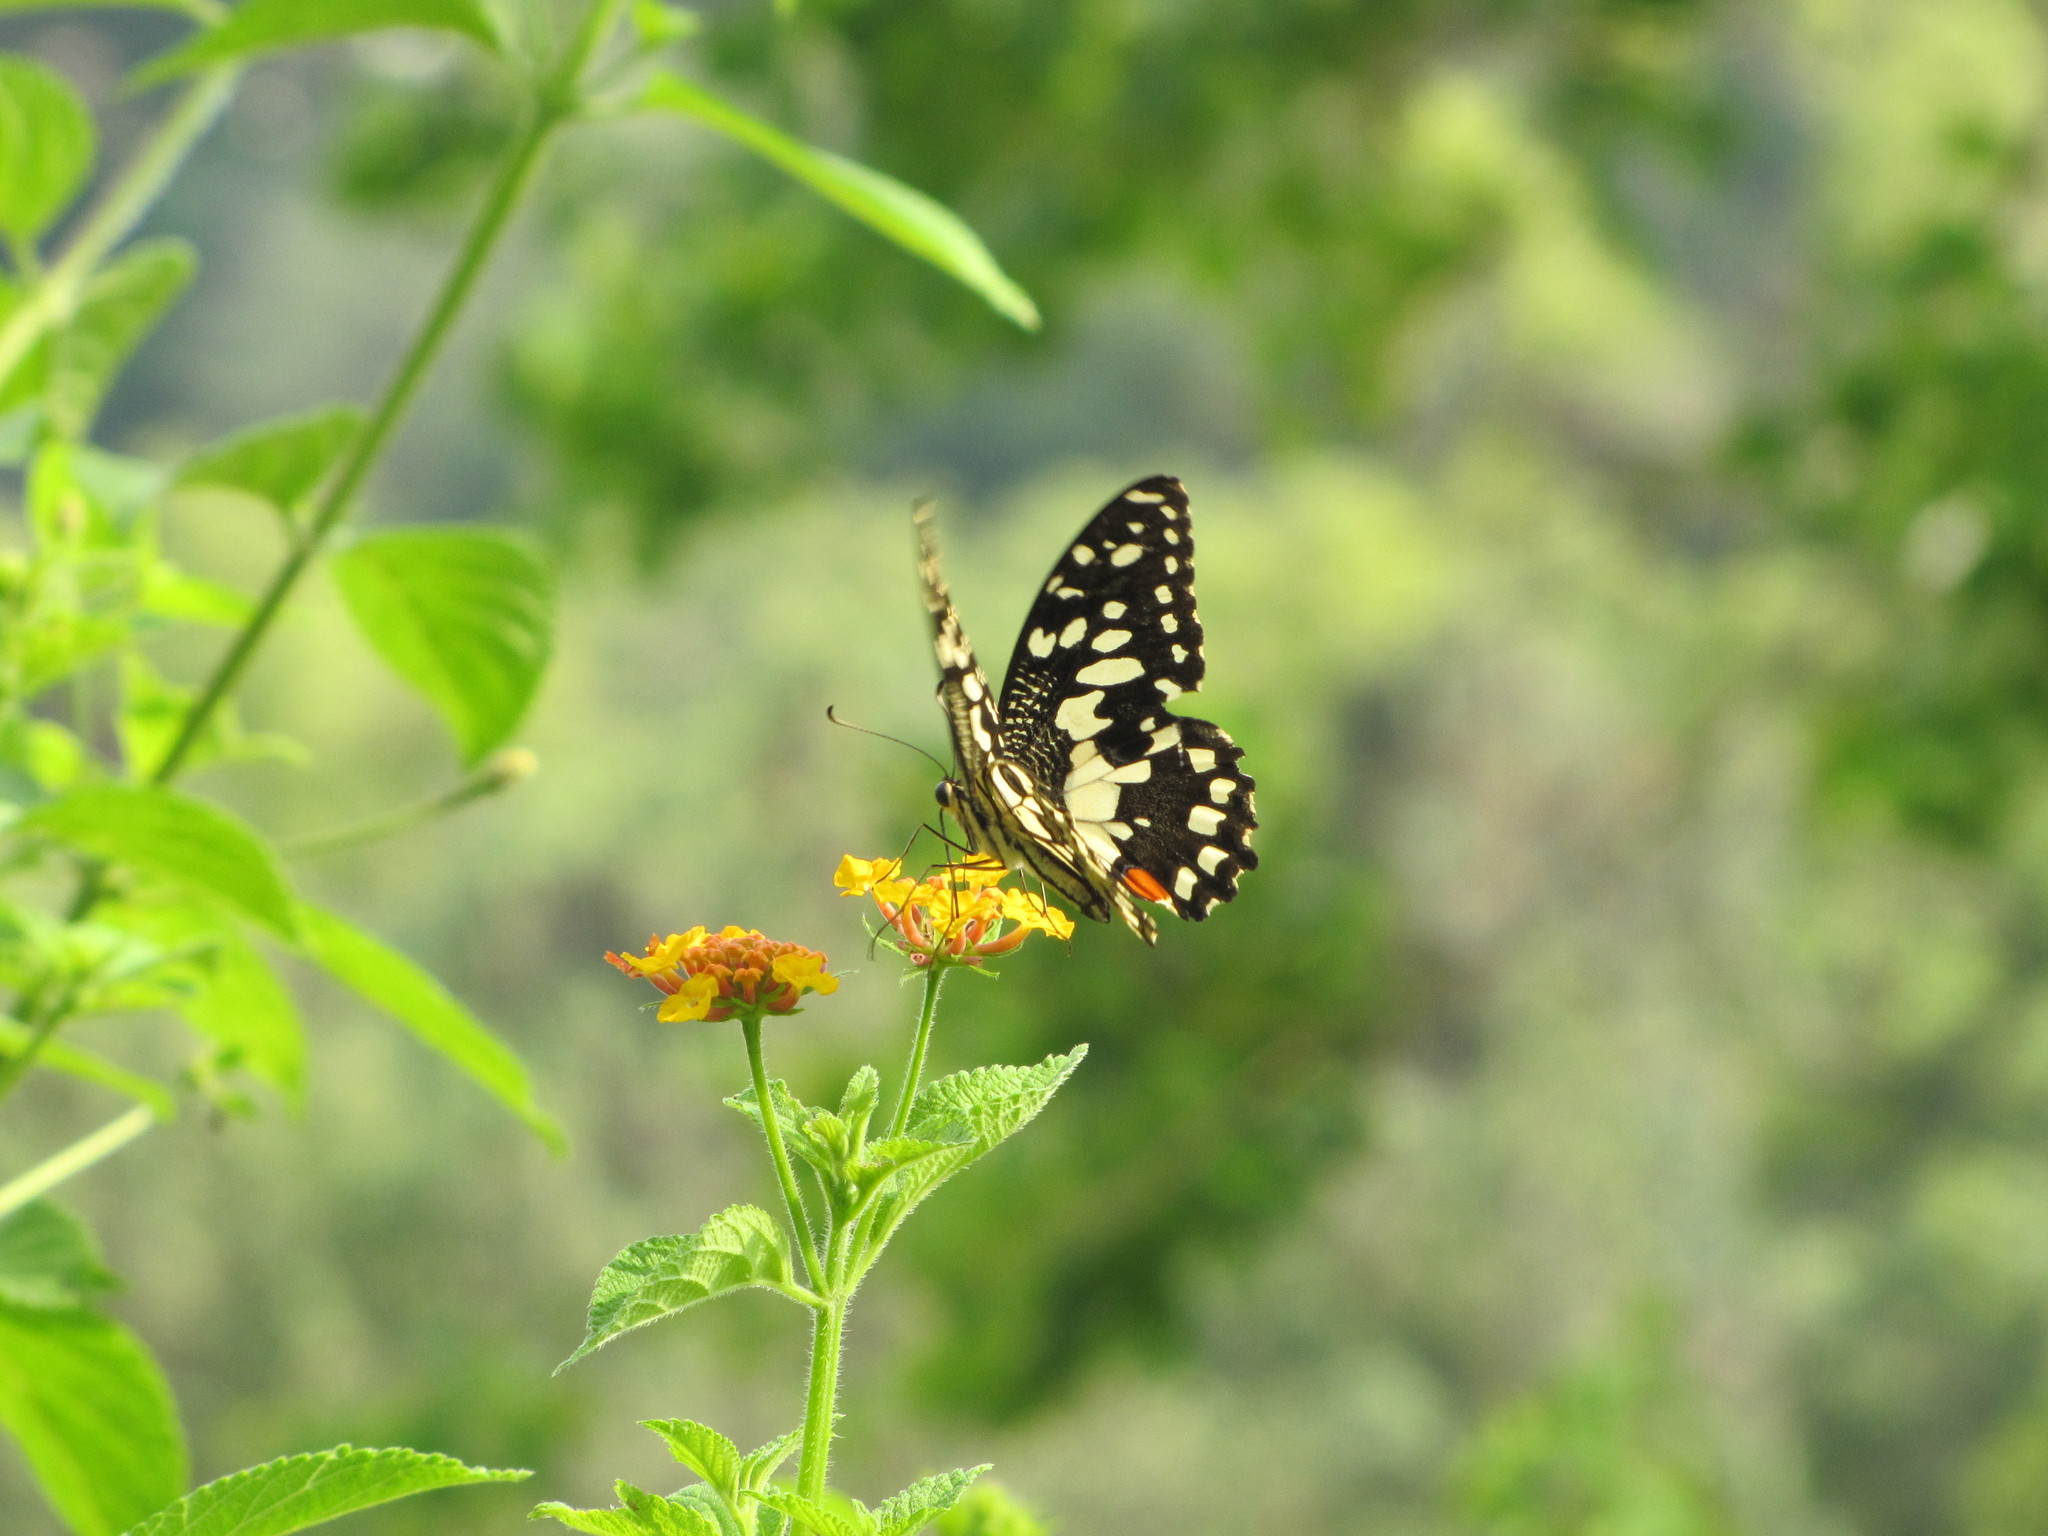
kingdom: Animalia
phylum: Arthropoda
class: Insecta
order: Lepidoptera
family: Papilionidae
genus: Papilio
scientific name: Papilio demoleus
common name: Lime butterfly
